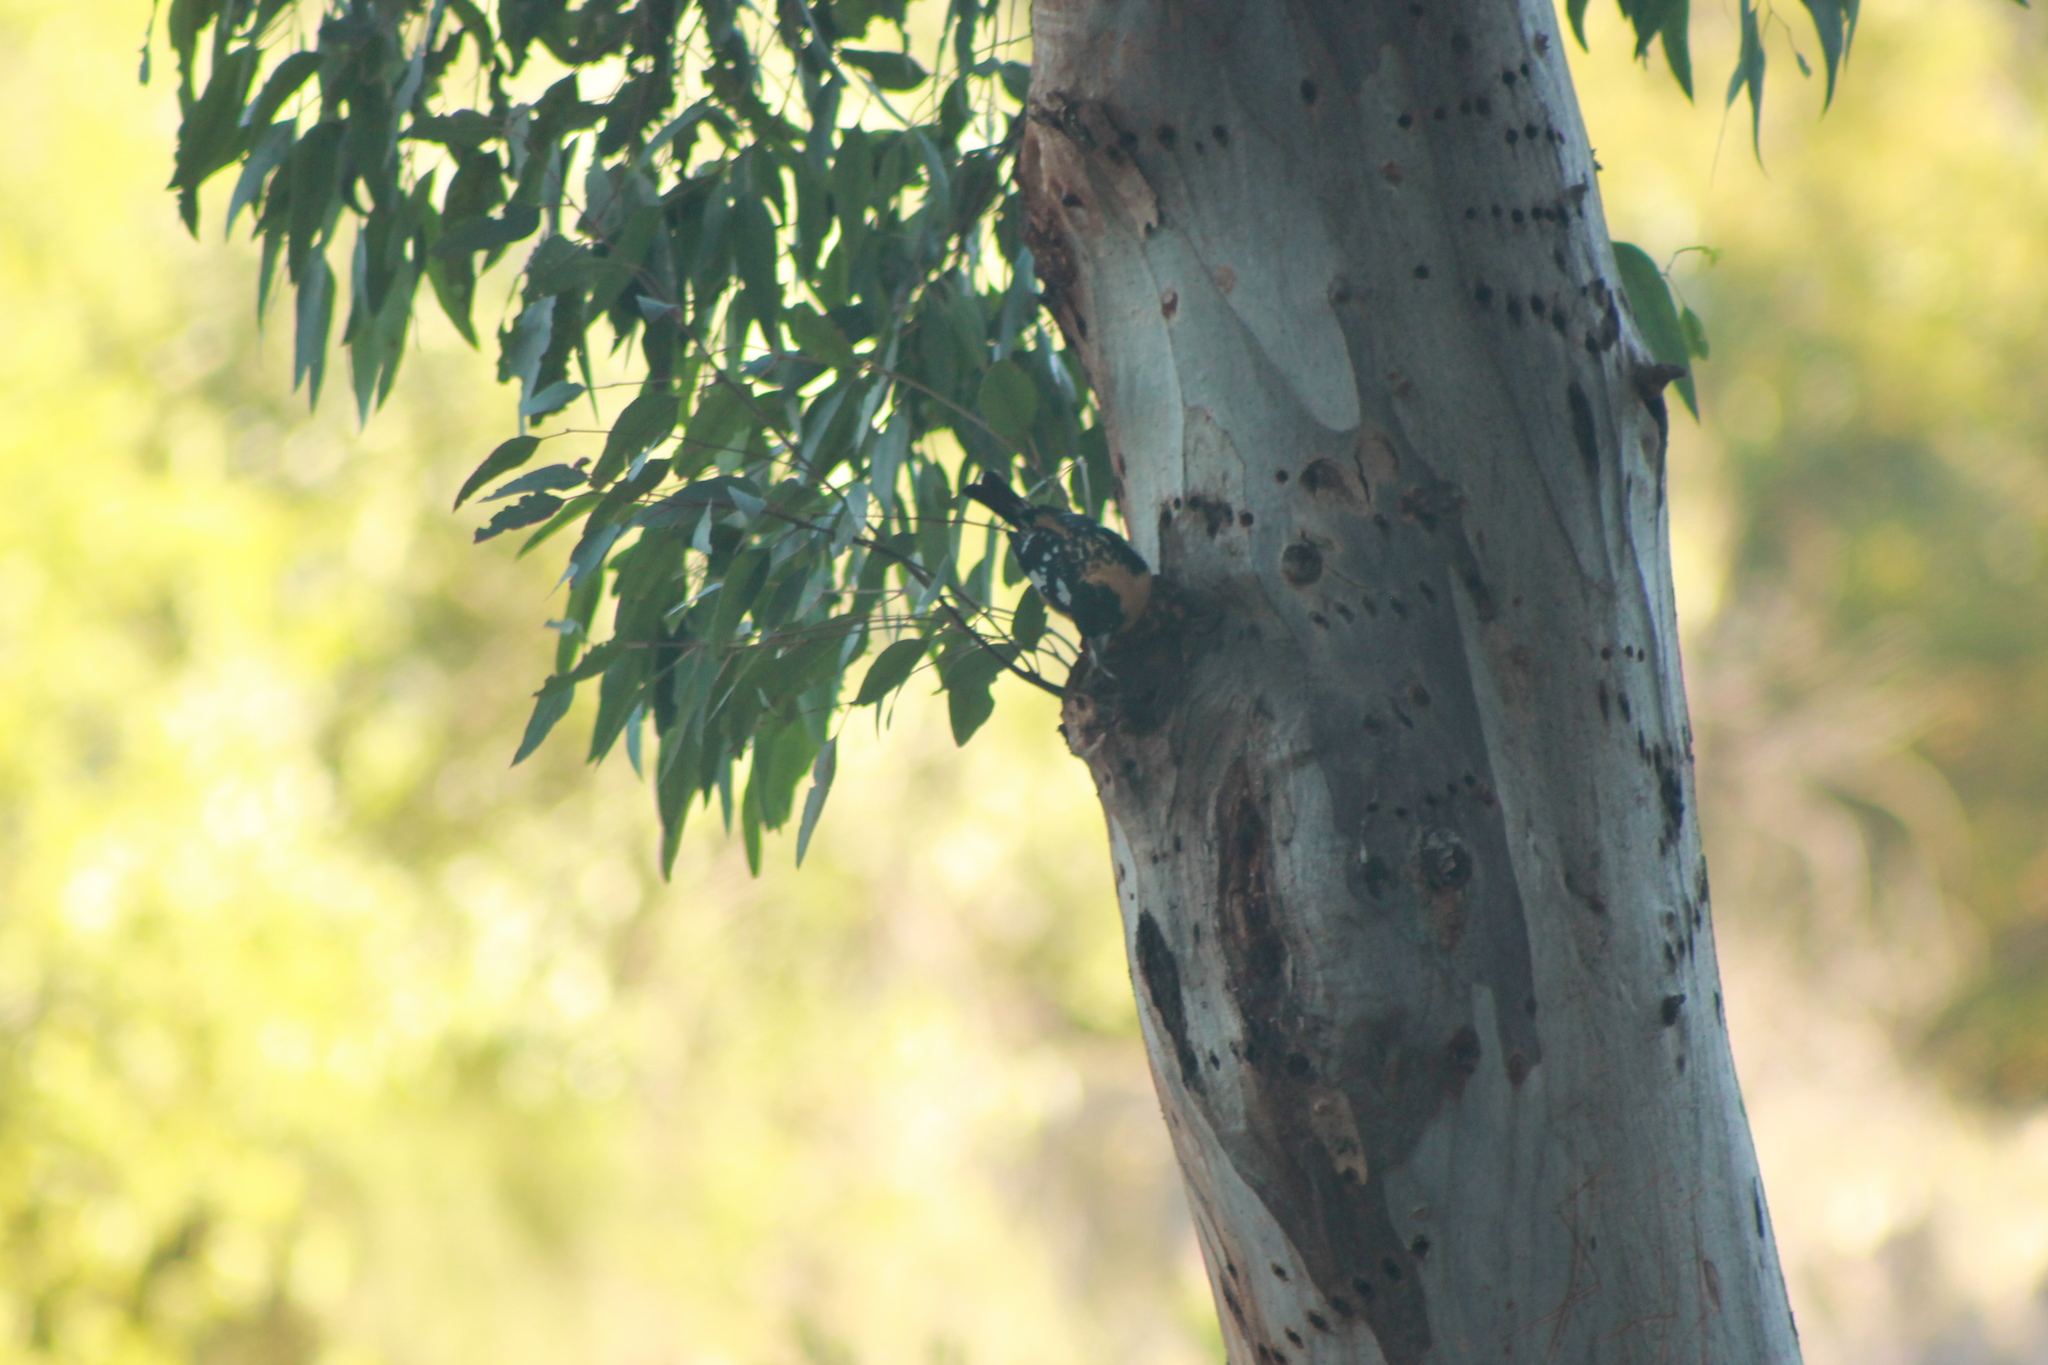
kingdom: Animalia
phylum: Chordata
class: Aves
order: Passeriformes
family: Cardinalidae
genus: Pheucticus
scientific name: Pheucticus melanocephalus
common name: Black-headed grosbeak
